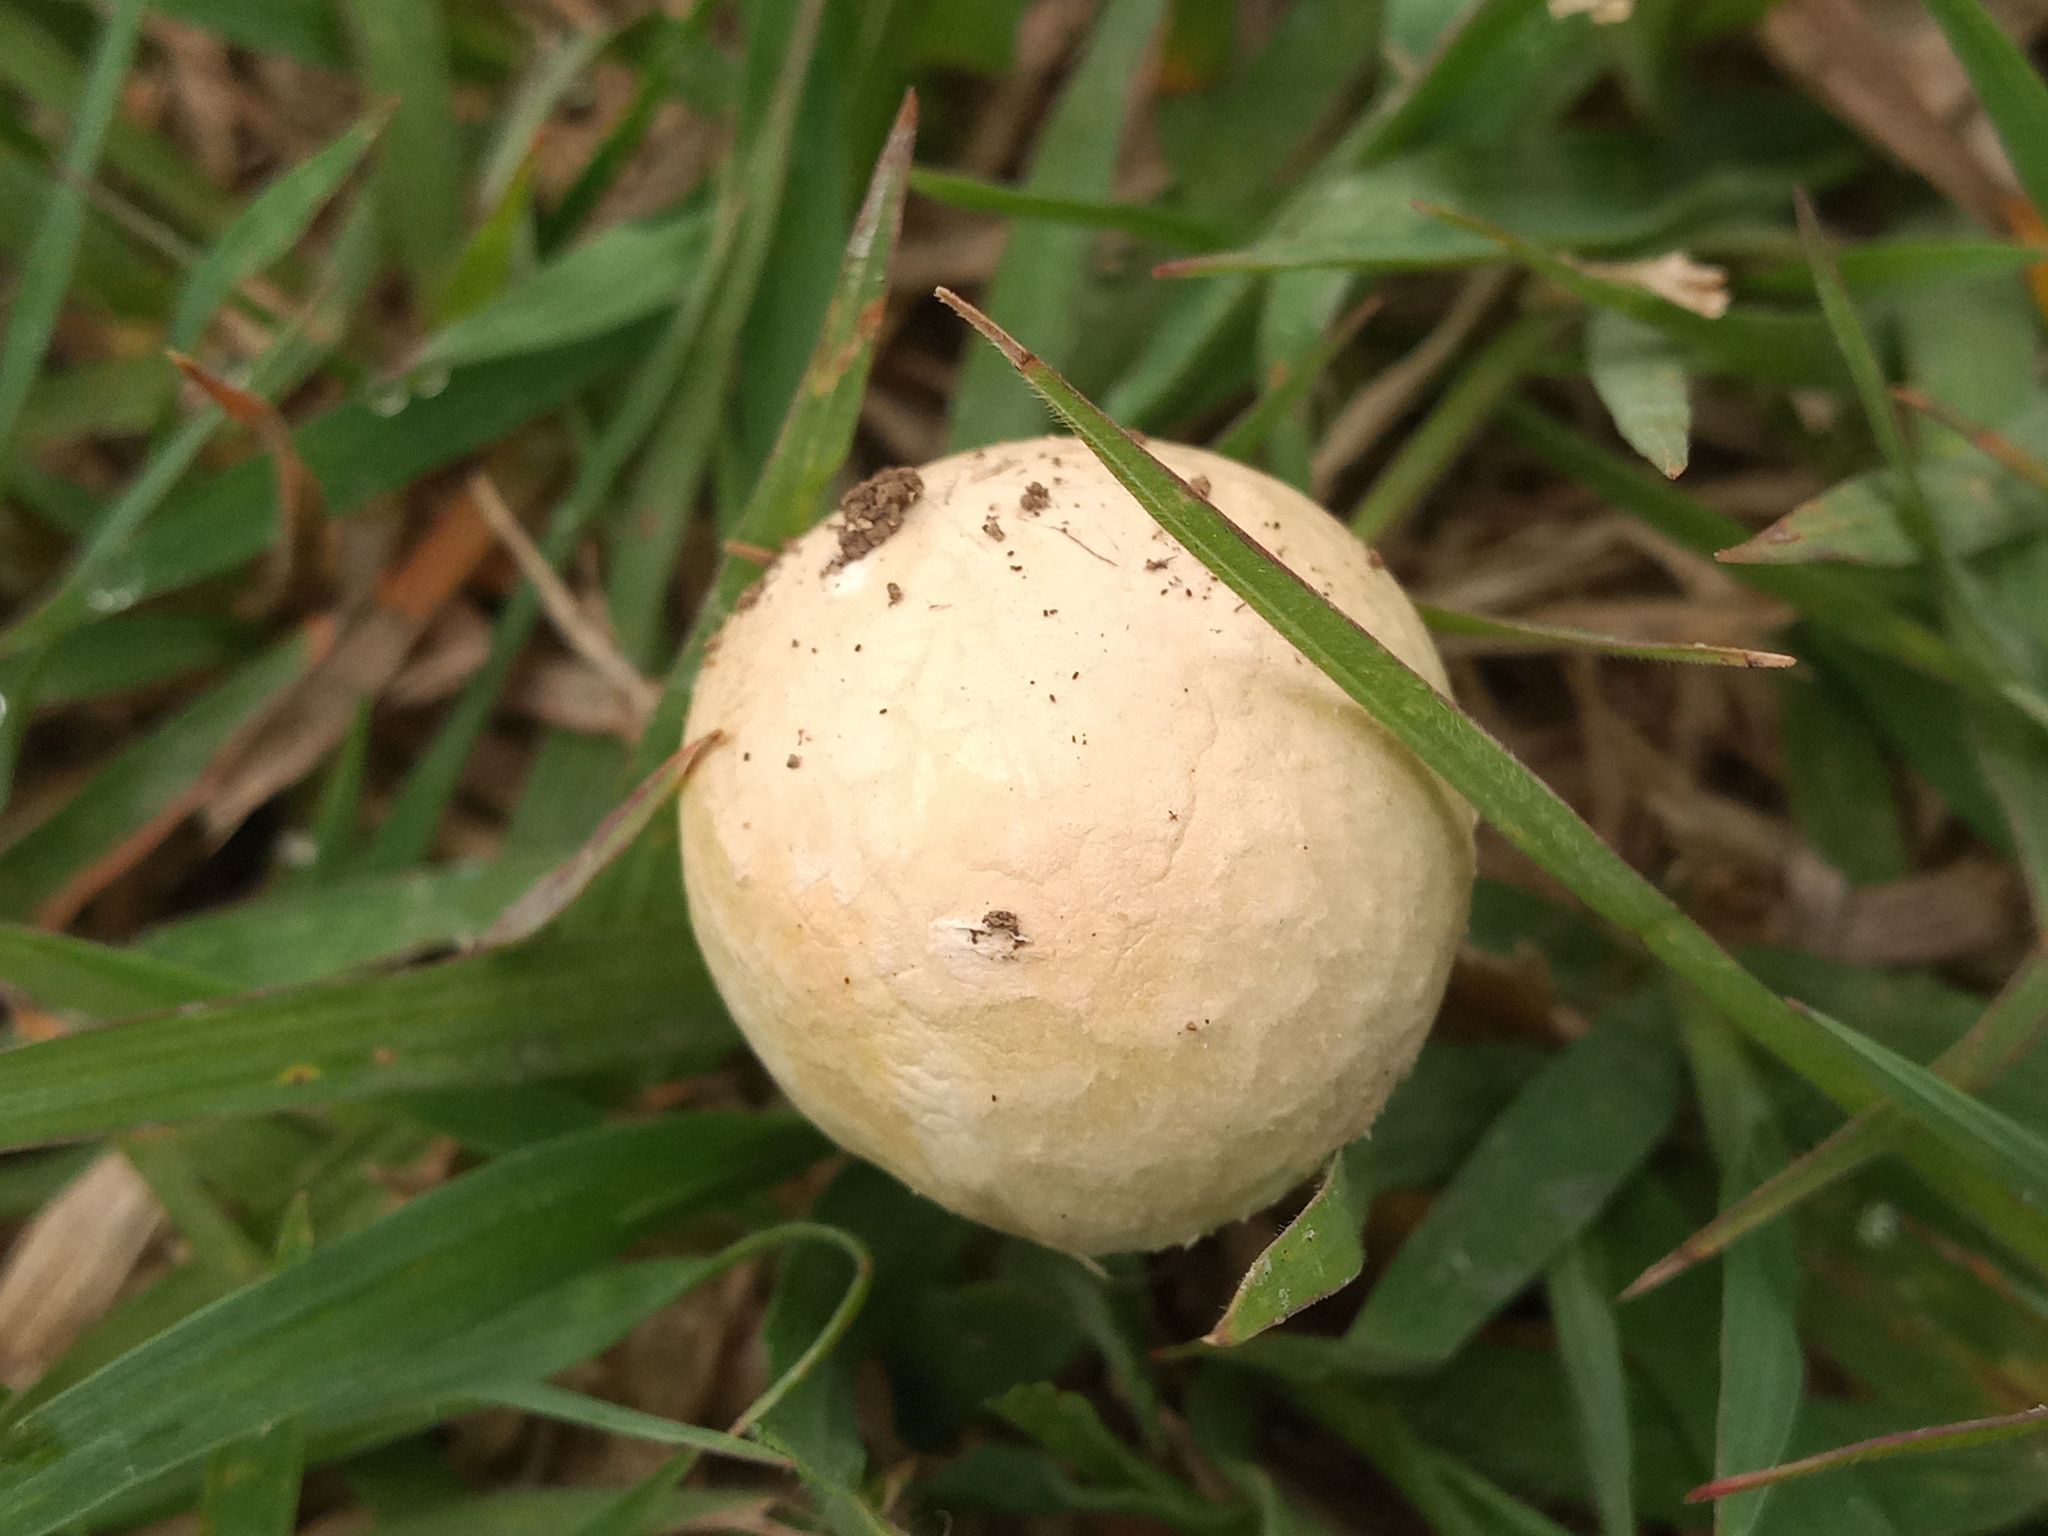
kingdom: Fungi
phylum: Basidiomycota
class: Agaricomycetes
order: Agaricales
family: Agaricaceae
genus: Chlorophyllum
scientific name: Chlorophyllum molybdites
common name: False parasol
